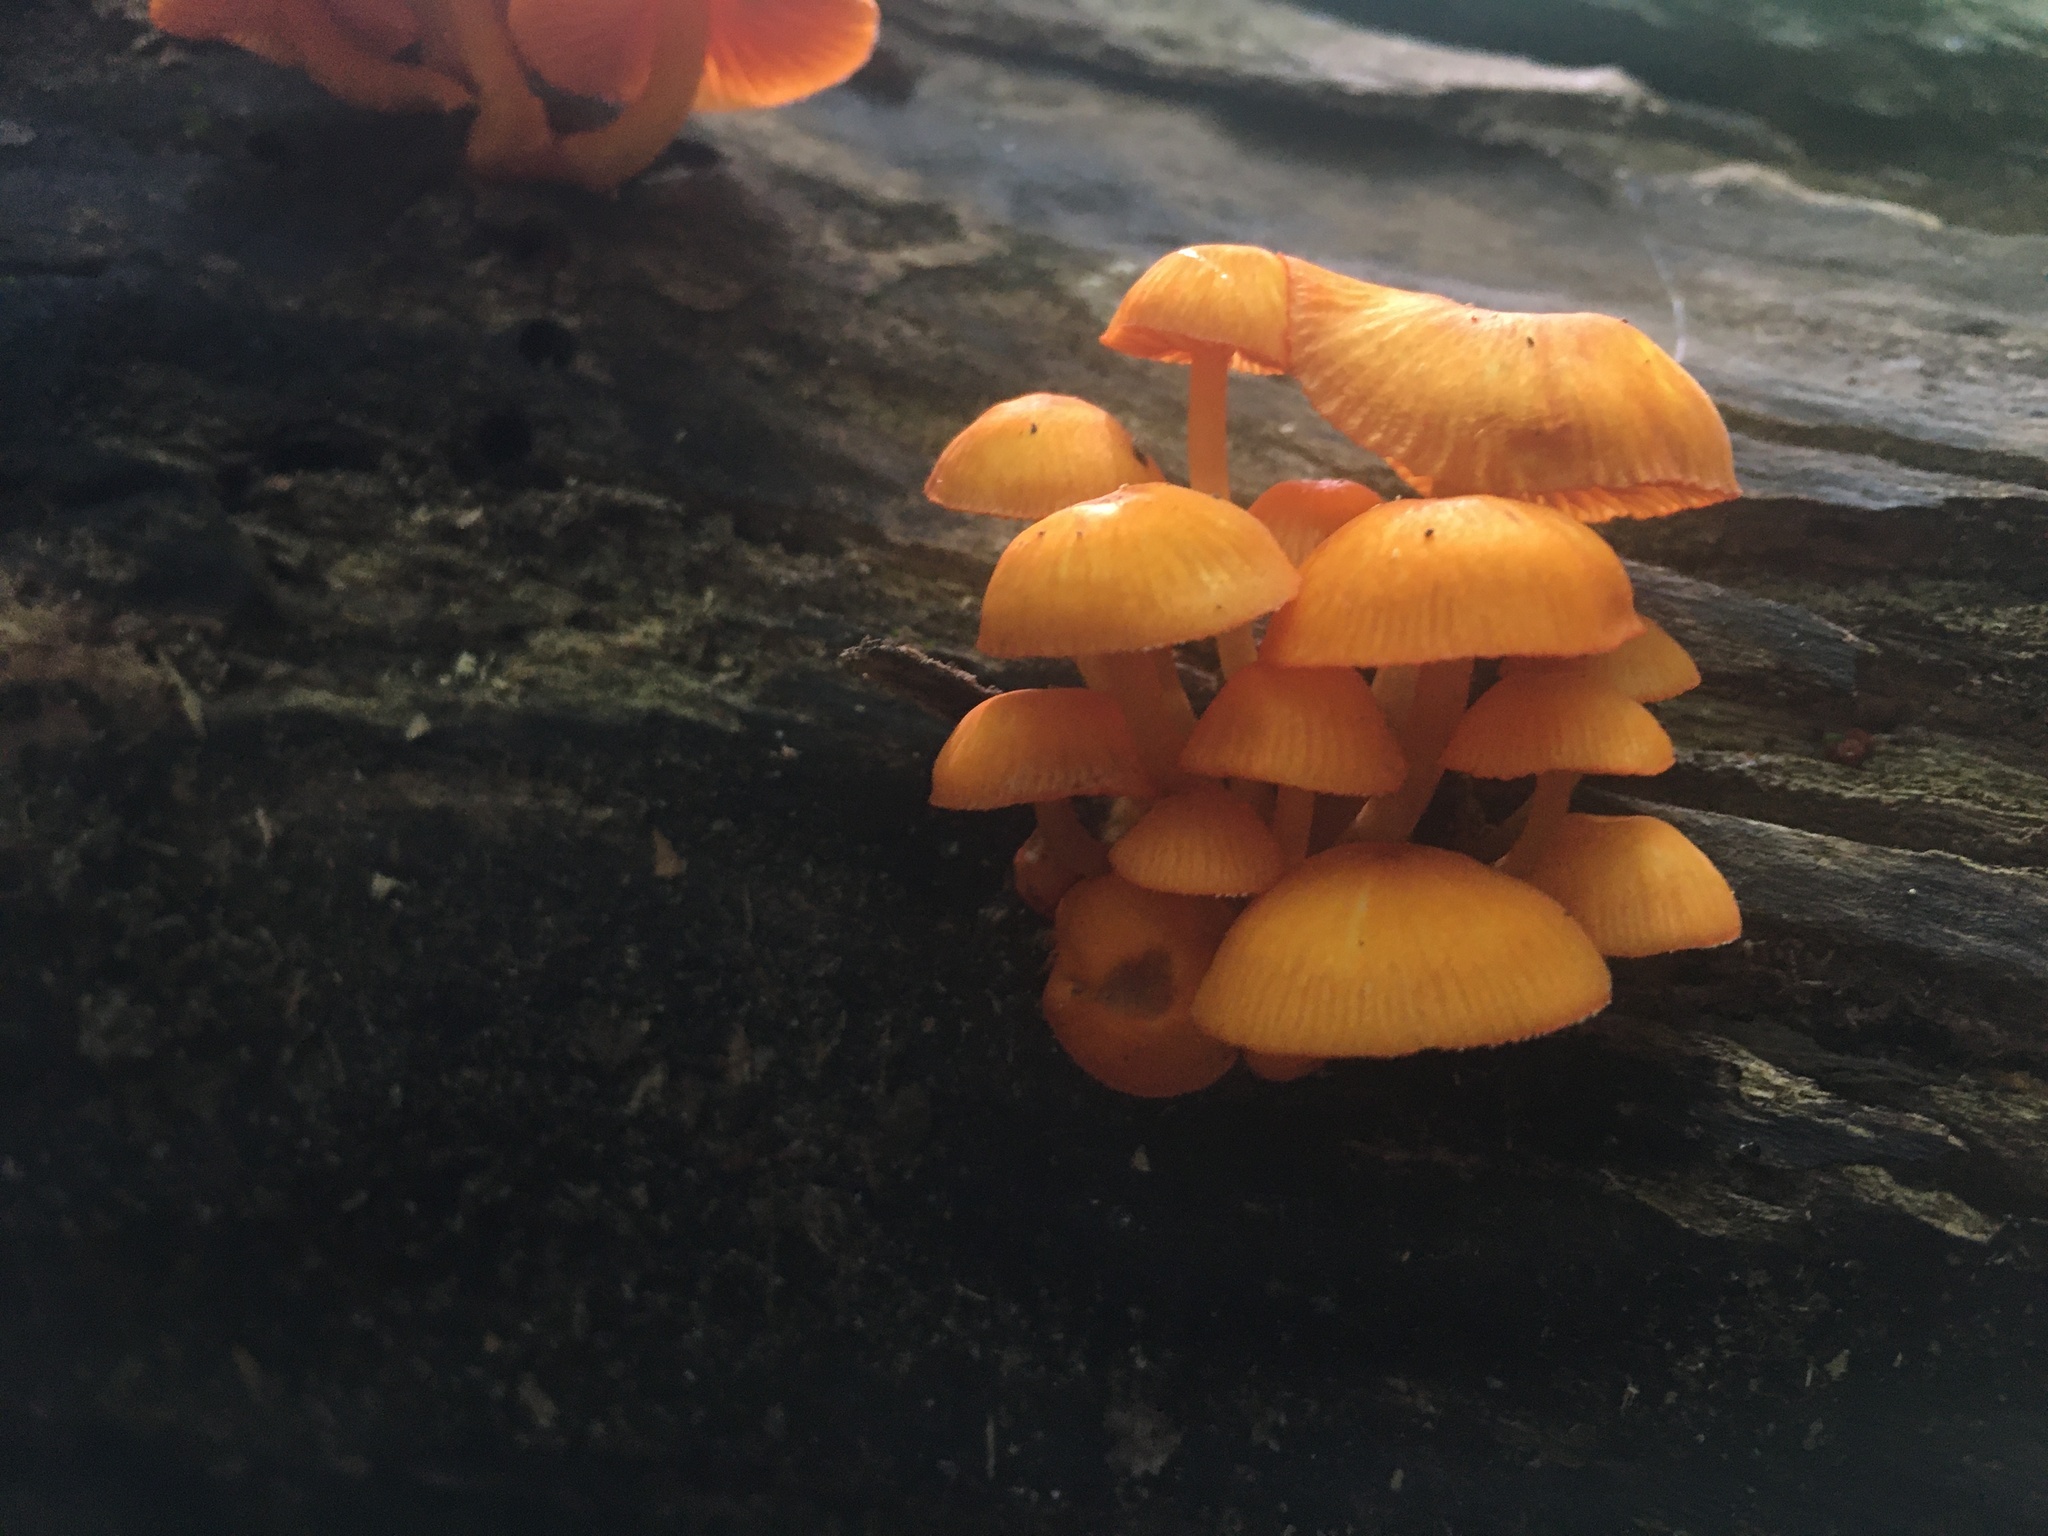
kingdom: Fungi
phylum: Basidiomycota
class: Agaricomycetes
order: Agaricales
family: Mycenaceae
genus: Mycena
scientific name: Mycena leaiana
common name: Orange mycena
